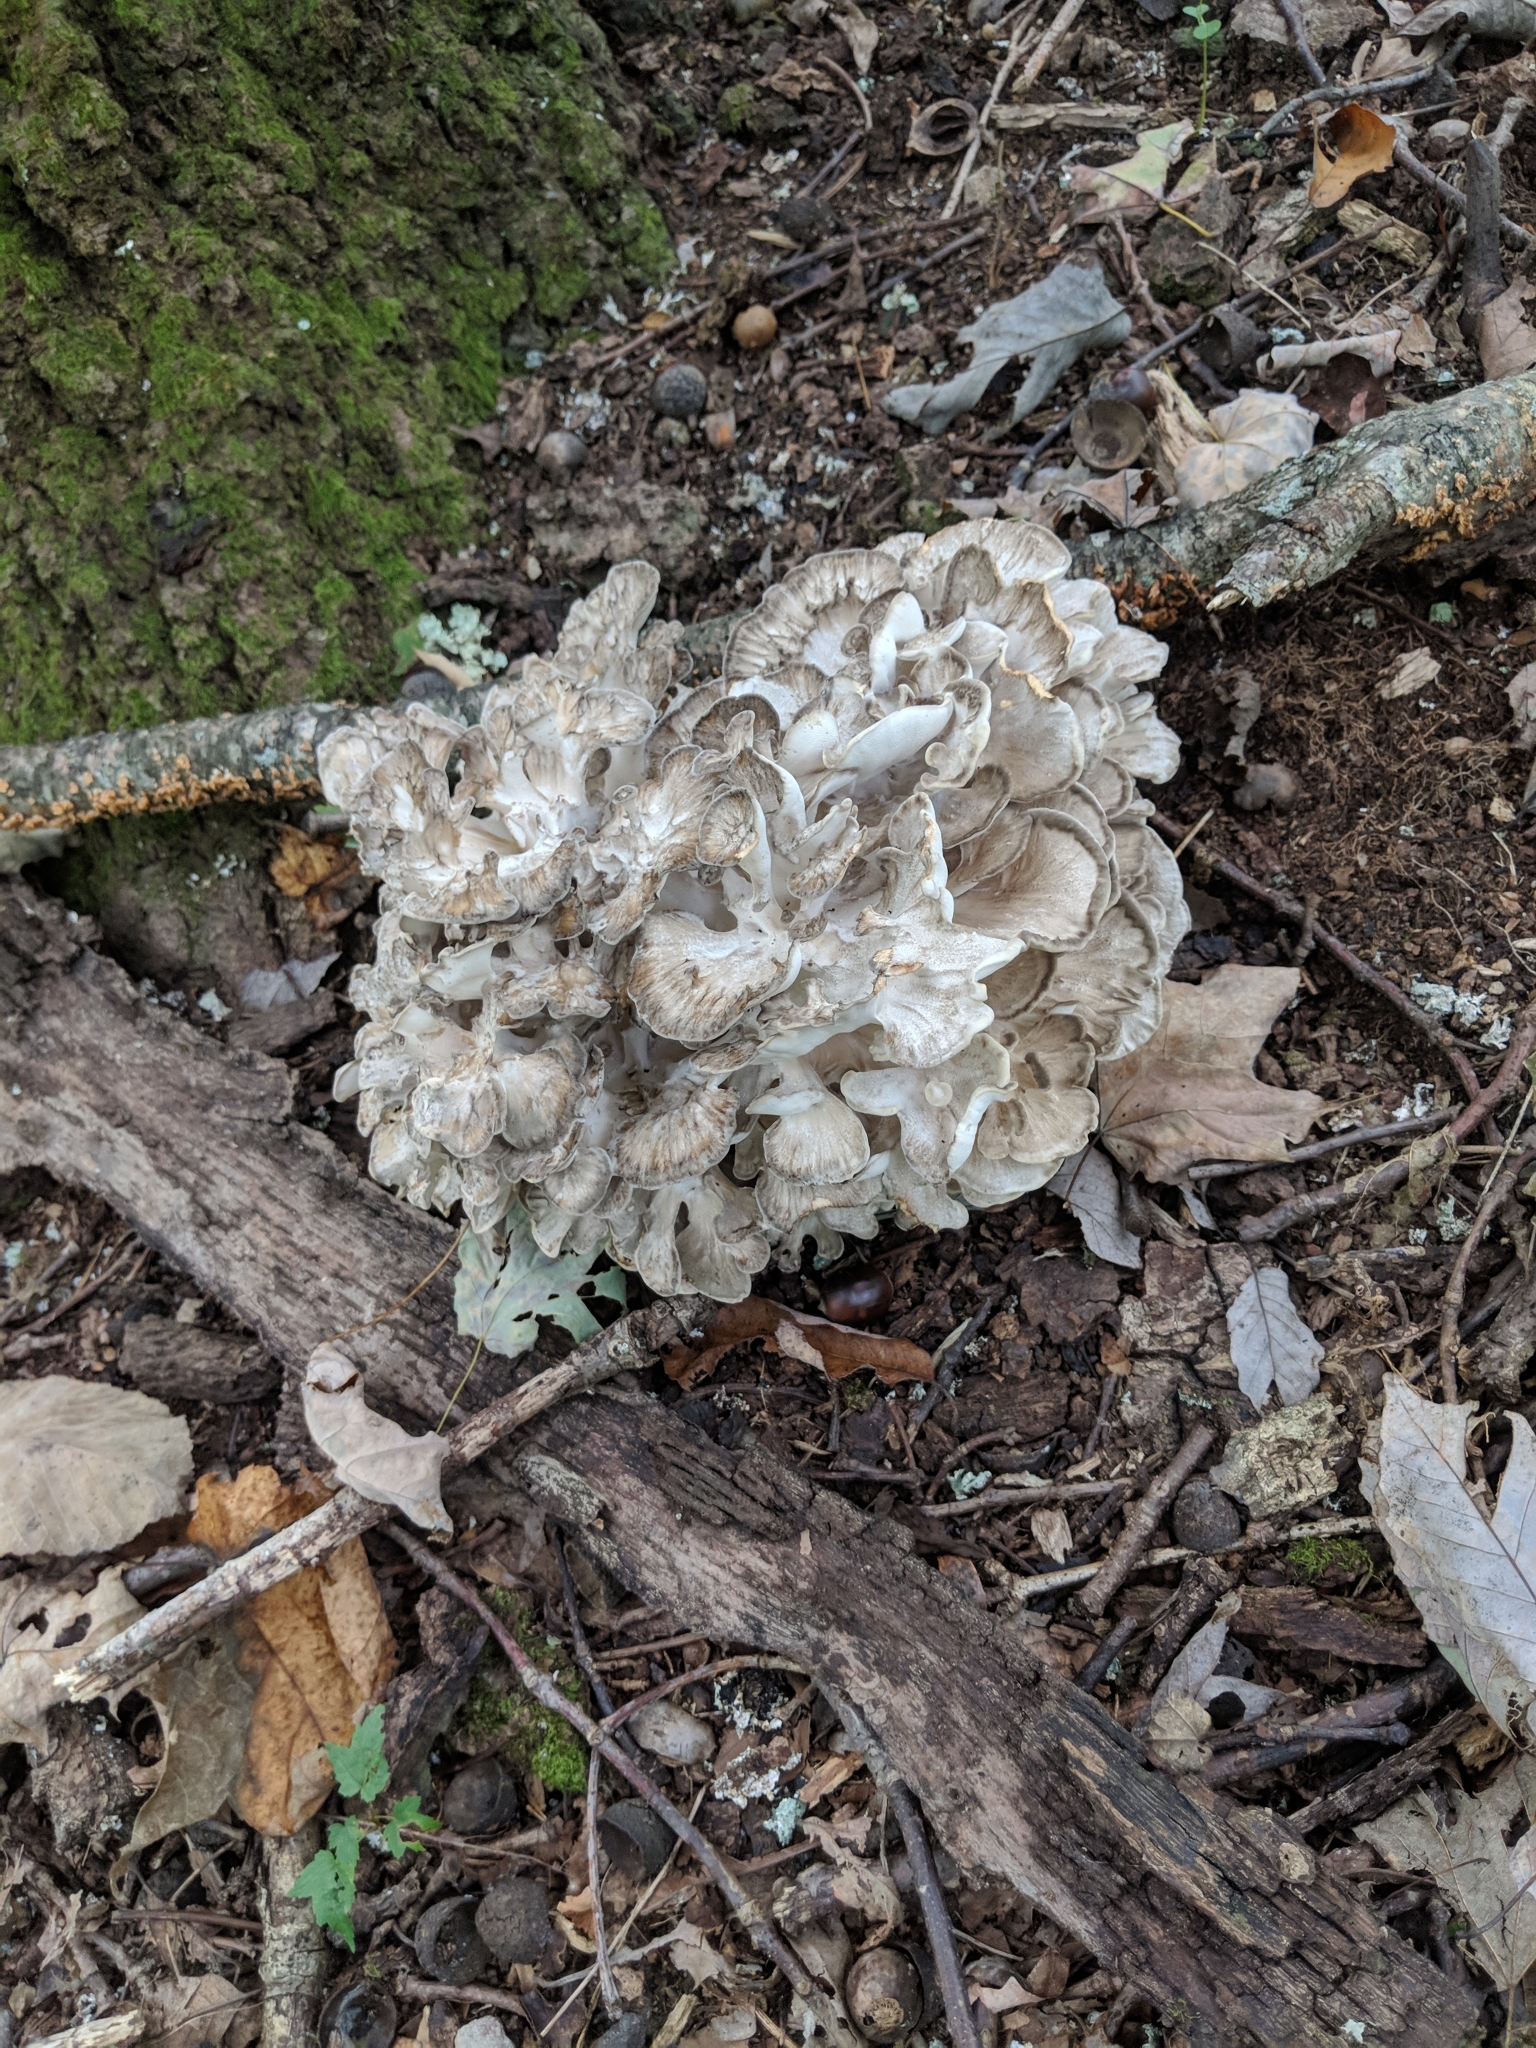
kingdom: Fungi
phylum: Basidiomycota
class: Agaricomycetes
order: Polyporales
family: Grifolaceae
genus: Grifola
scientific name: Grifola frondosa
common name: Hen of the woods
